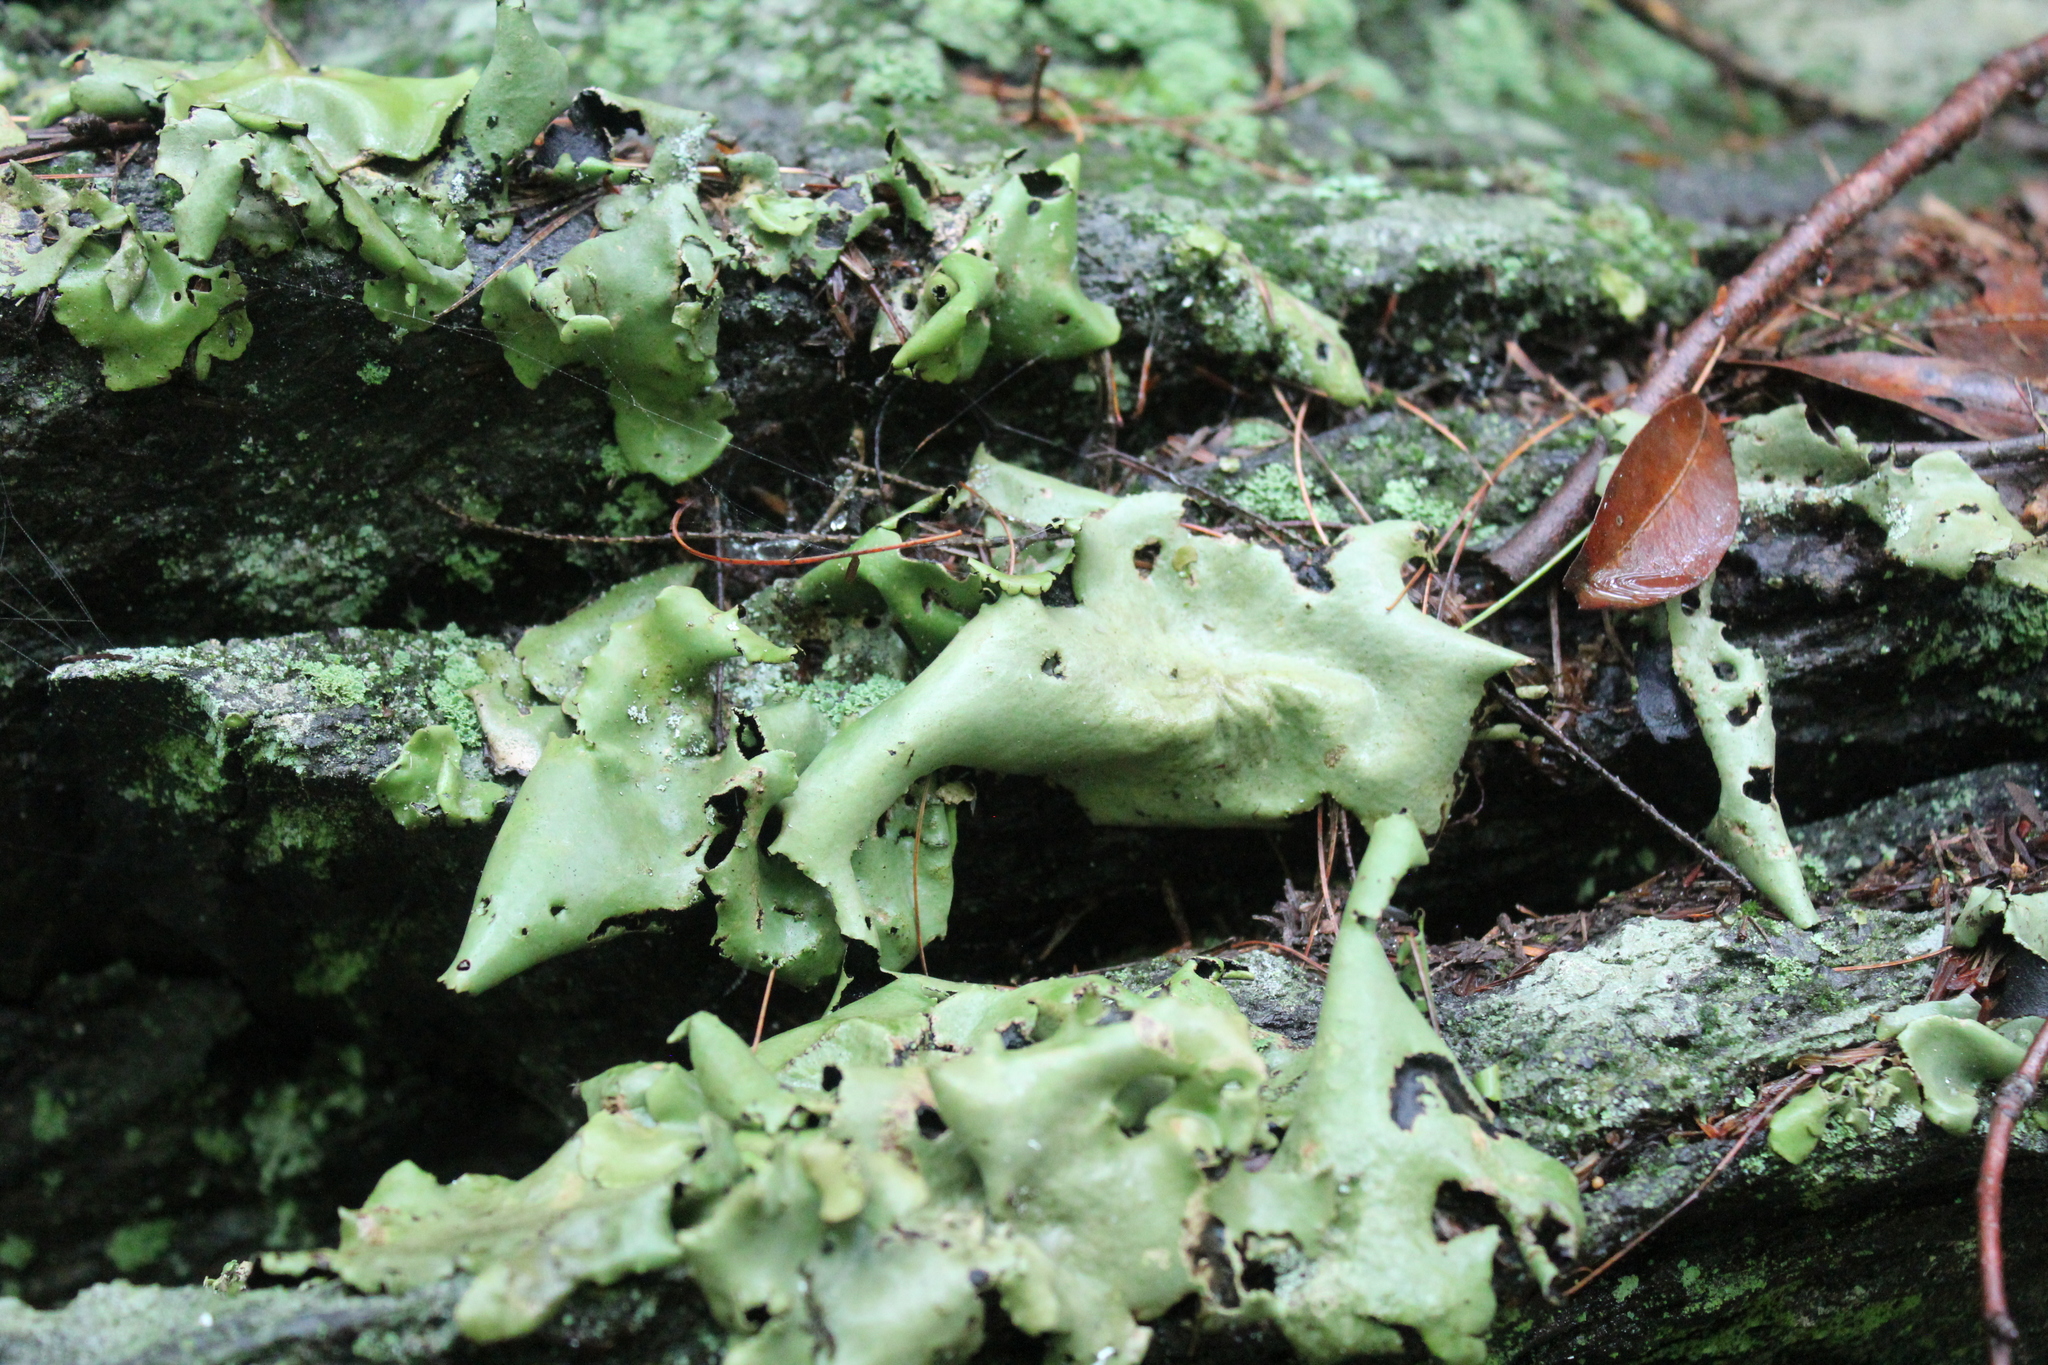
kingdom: Fungi
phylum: Ascomycota
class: Lecanoromycetes
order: Umbilicariales
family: Umbilicariaceae
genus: Umbilicaria
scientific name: Umbilicaria mammulata
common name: Smooth rock tripe
